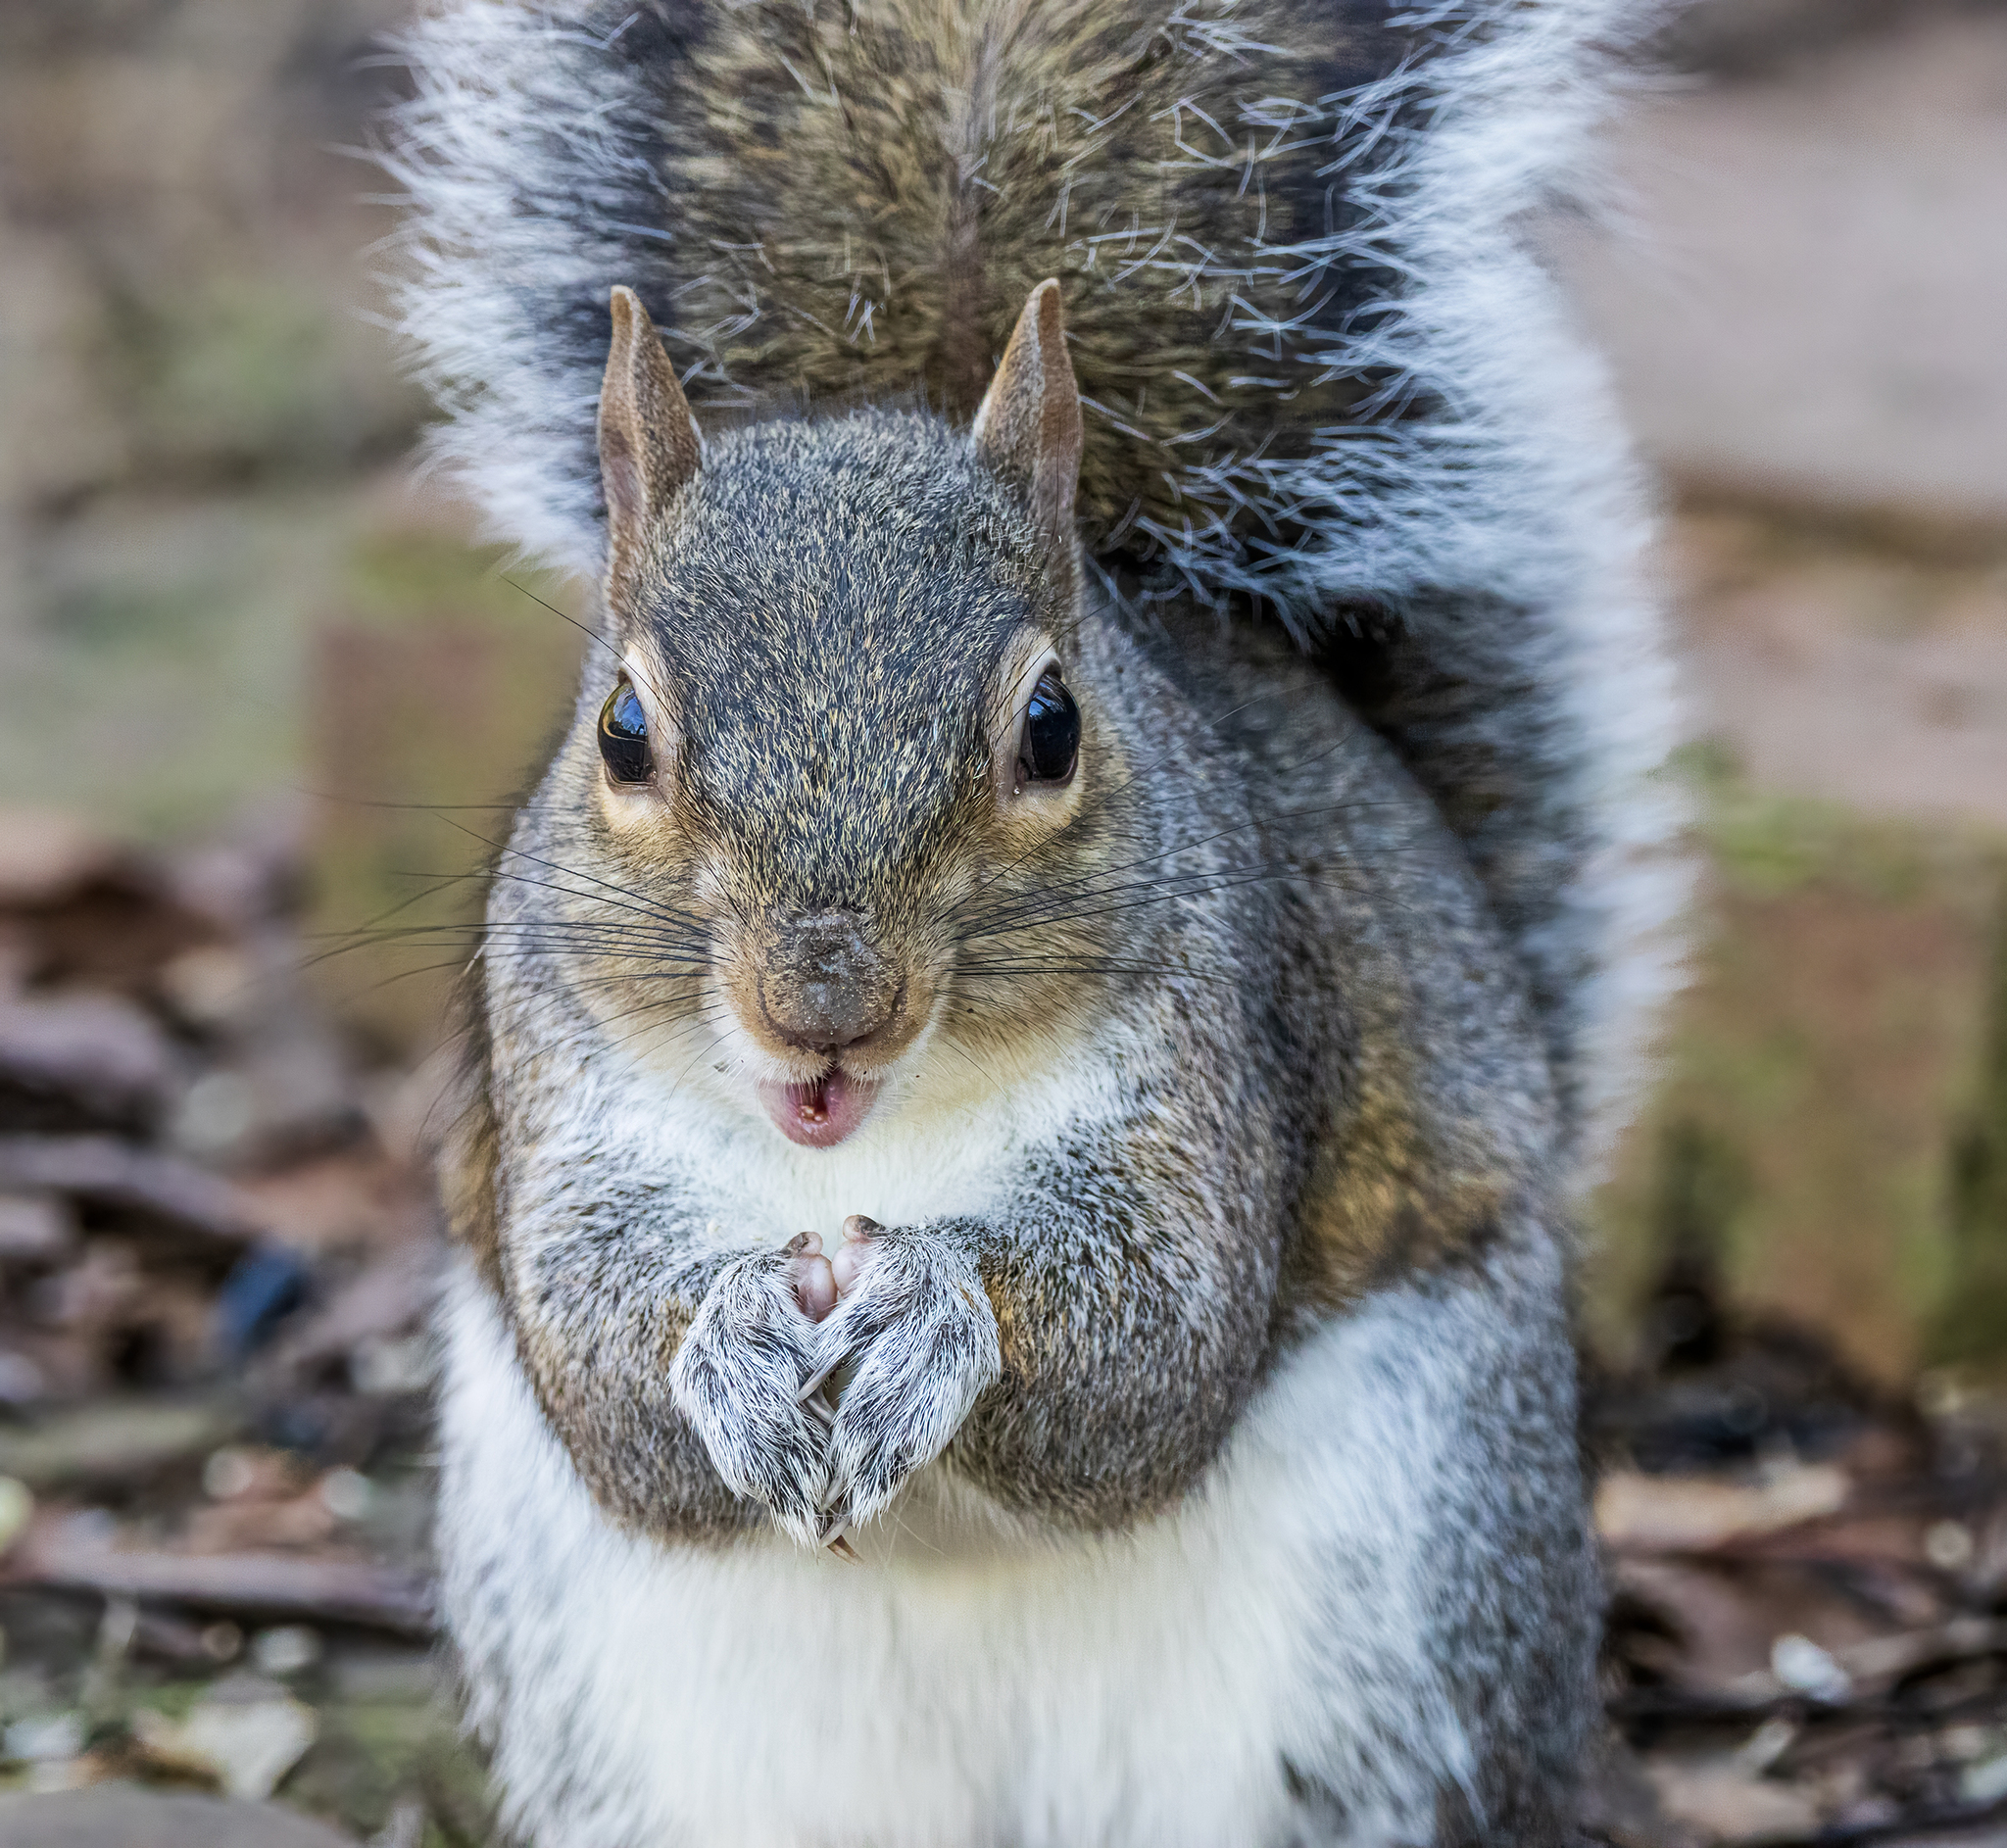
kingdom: Animalia
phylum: Chordata
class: Mammalia
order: Rodentia
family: Sciuridae
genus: Sciurus
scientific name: Sciurus carolinensis
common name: Eastern gray squirrel
